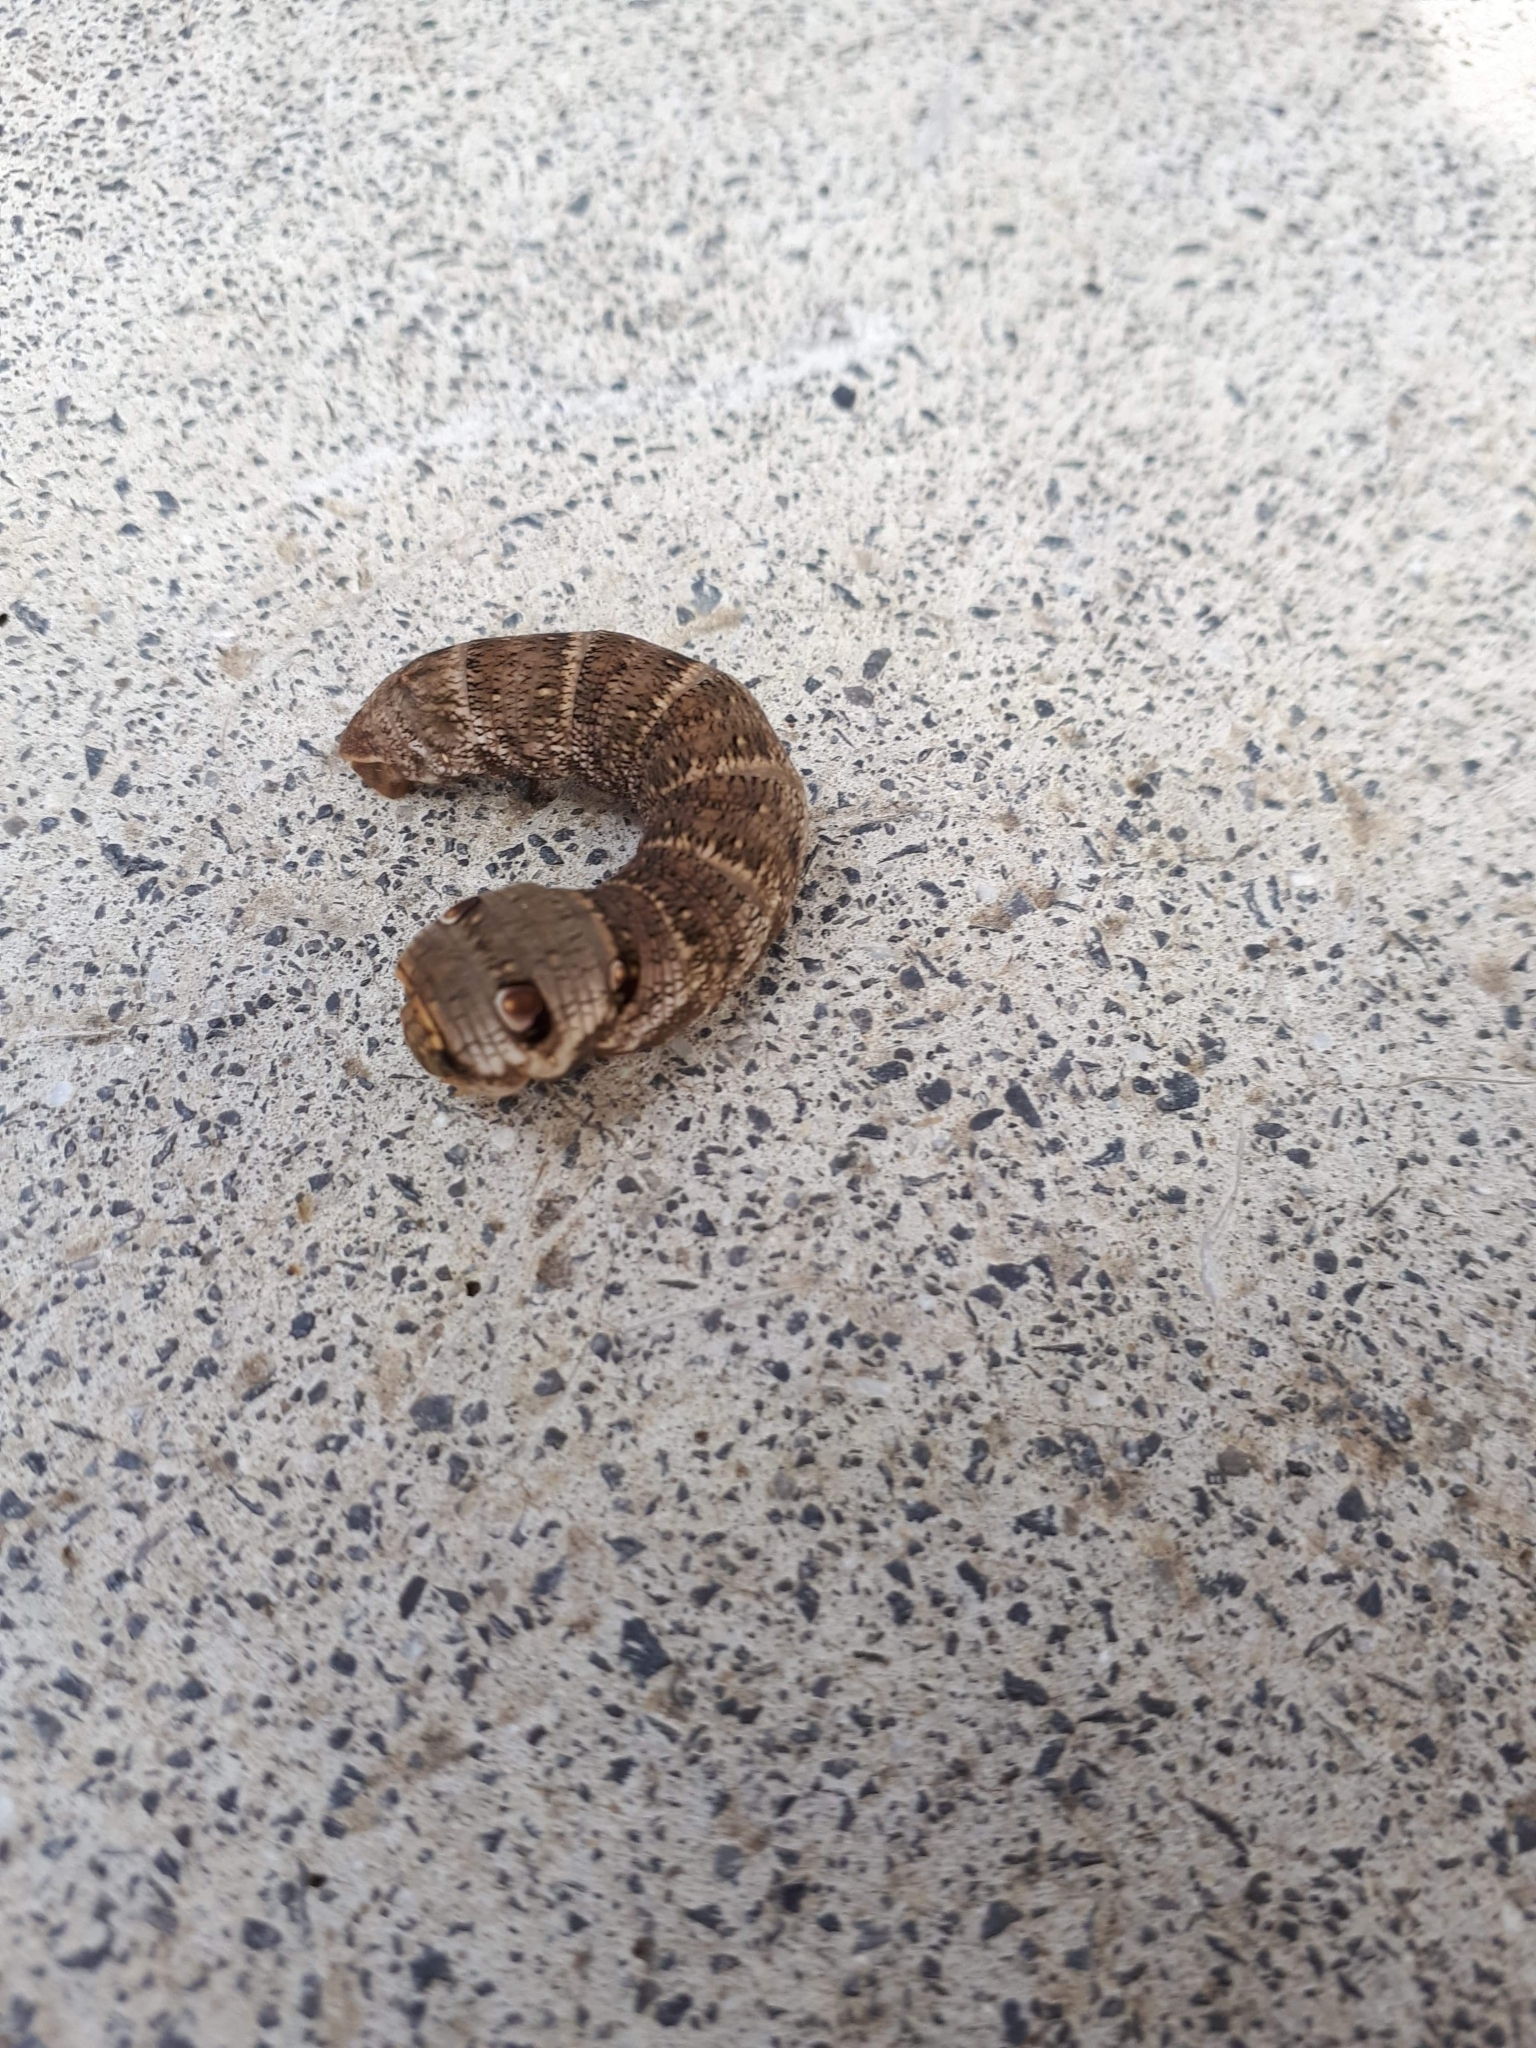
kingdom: Animalia
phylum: Arthropoda
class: Insecta
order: Lepidoptera
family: Sphingidae
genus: Deilephila
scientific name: Deilephila porcellus
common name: Small elephant hawk-moth
